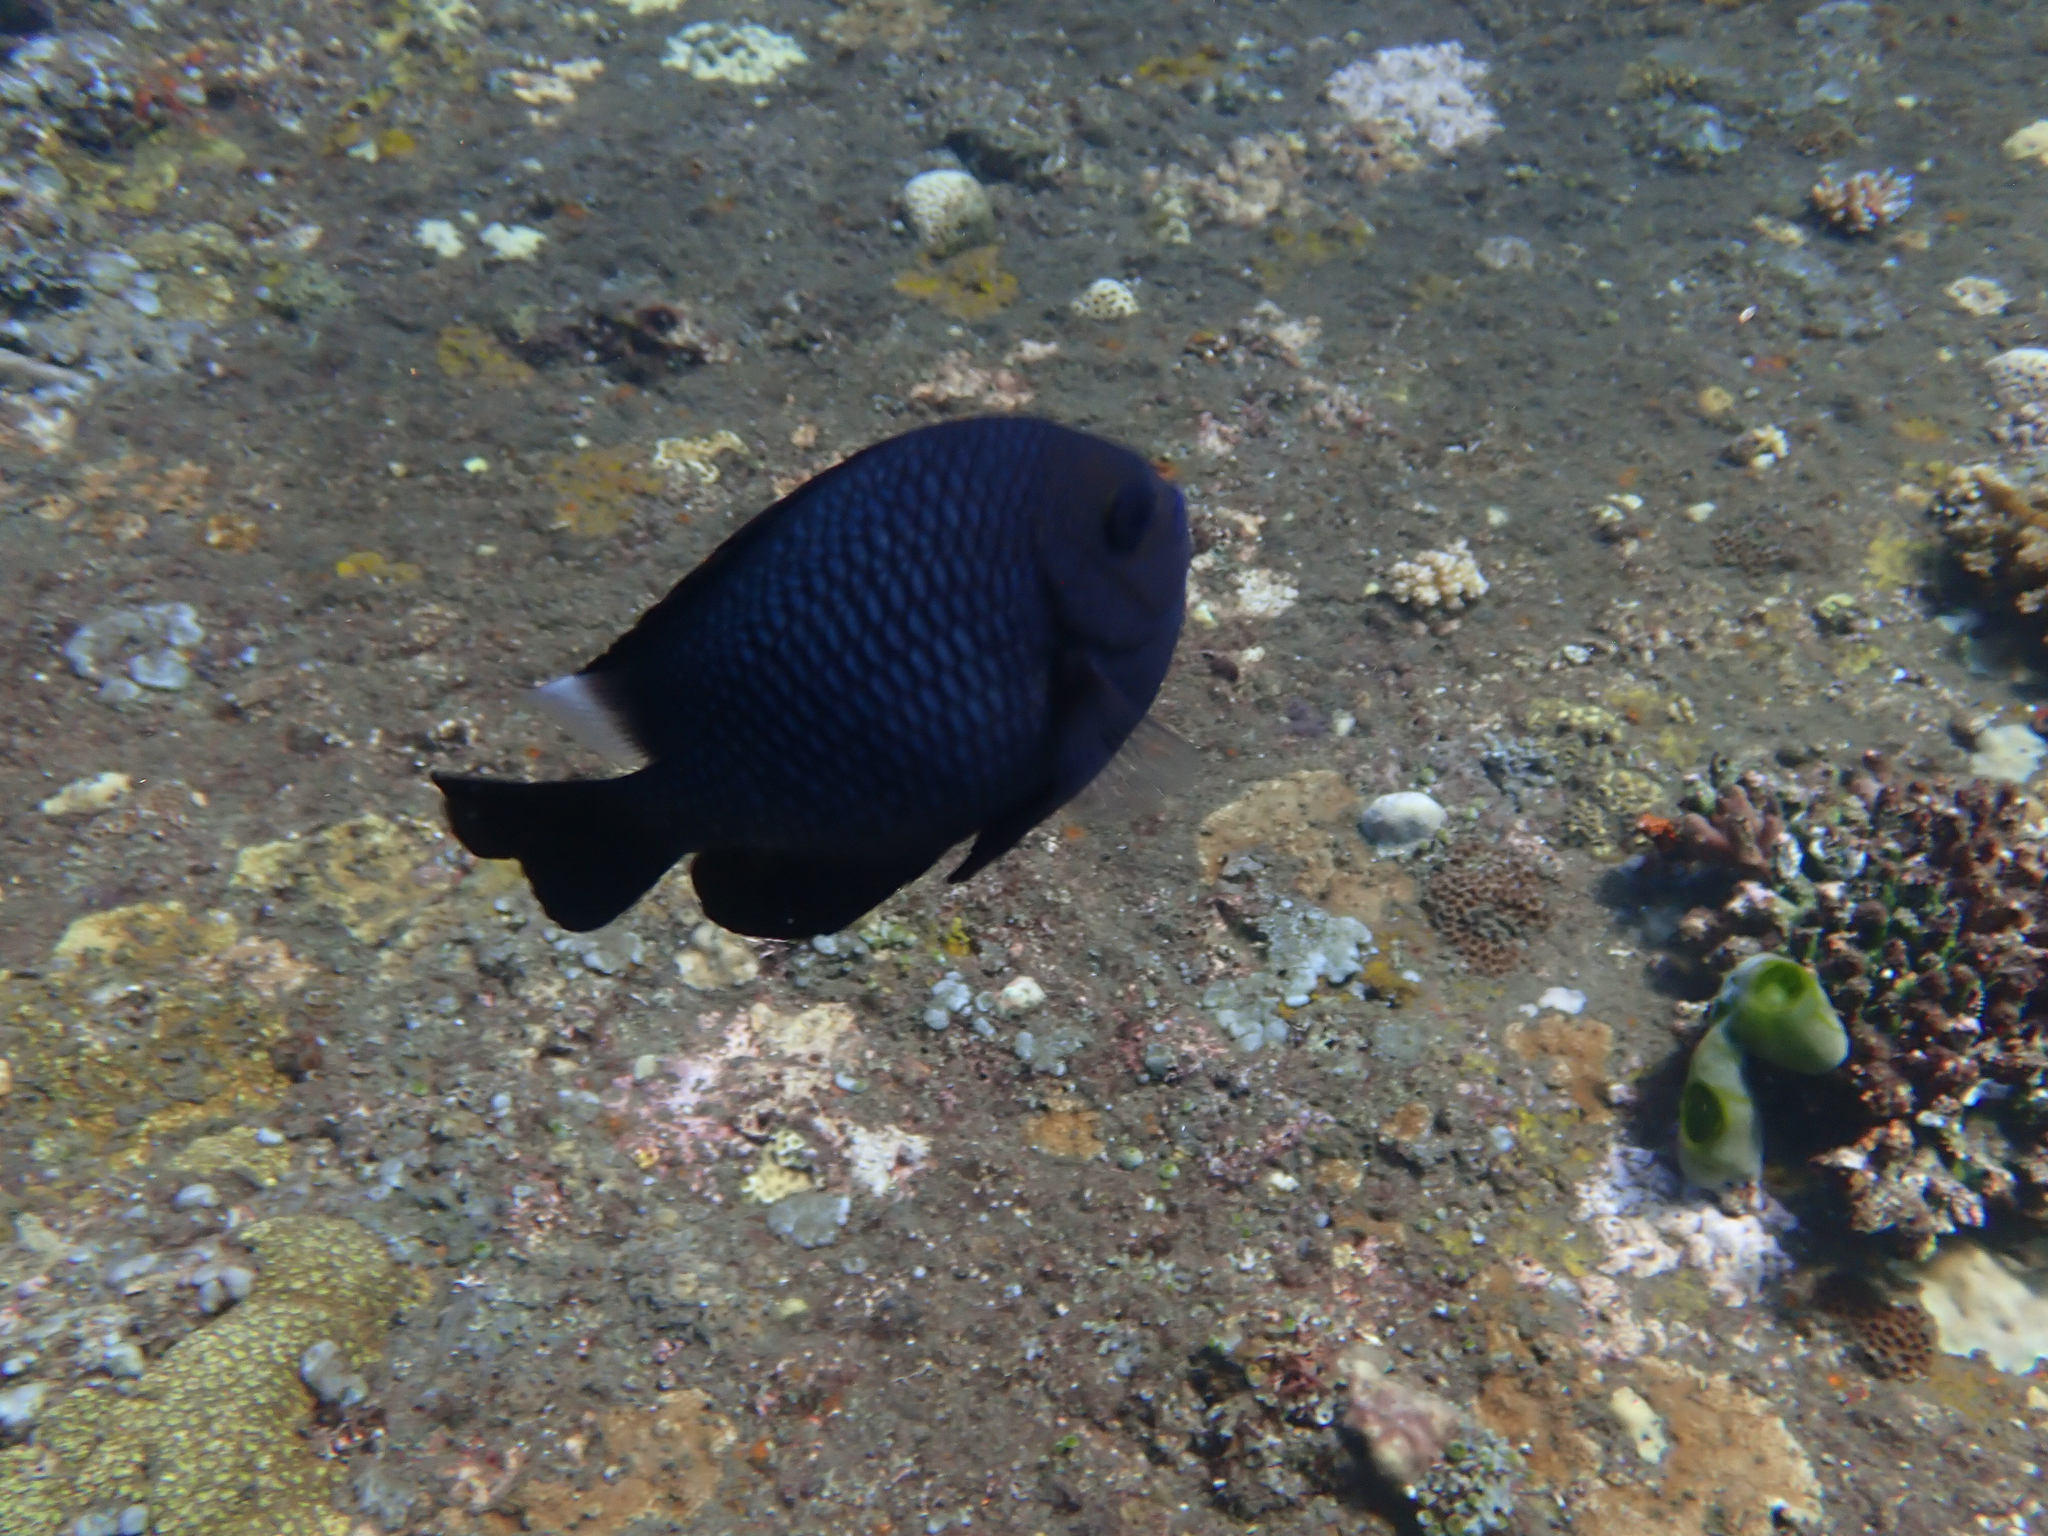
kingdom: Animalia
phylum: Chordata
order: Perciformes
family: Pomacentridae
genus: Dascyllus
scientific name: Dascyllus trimaculatus
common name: Threespot dascyllus
